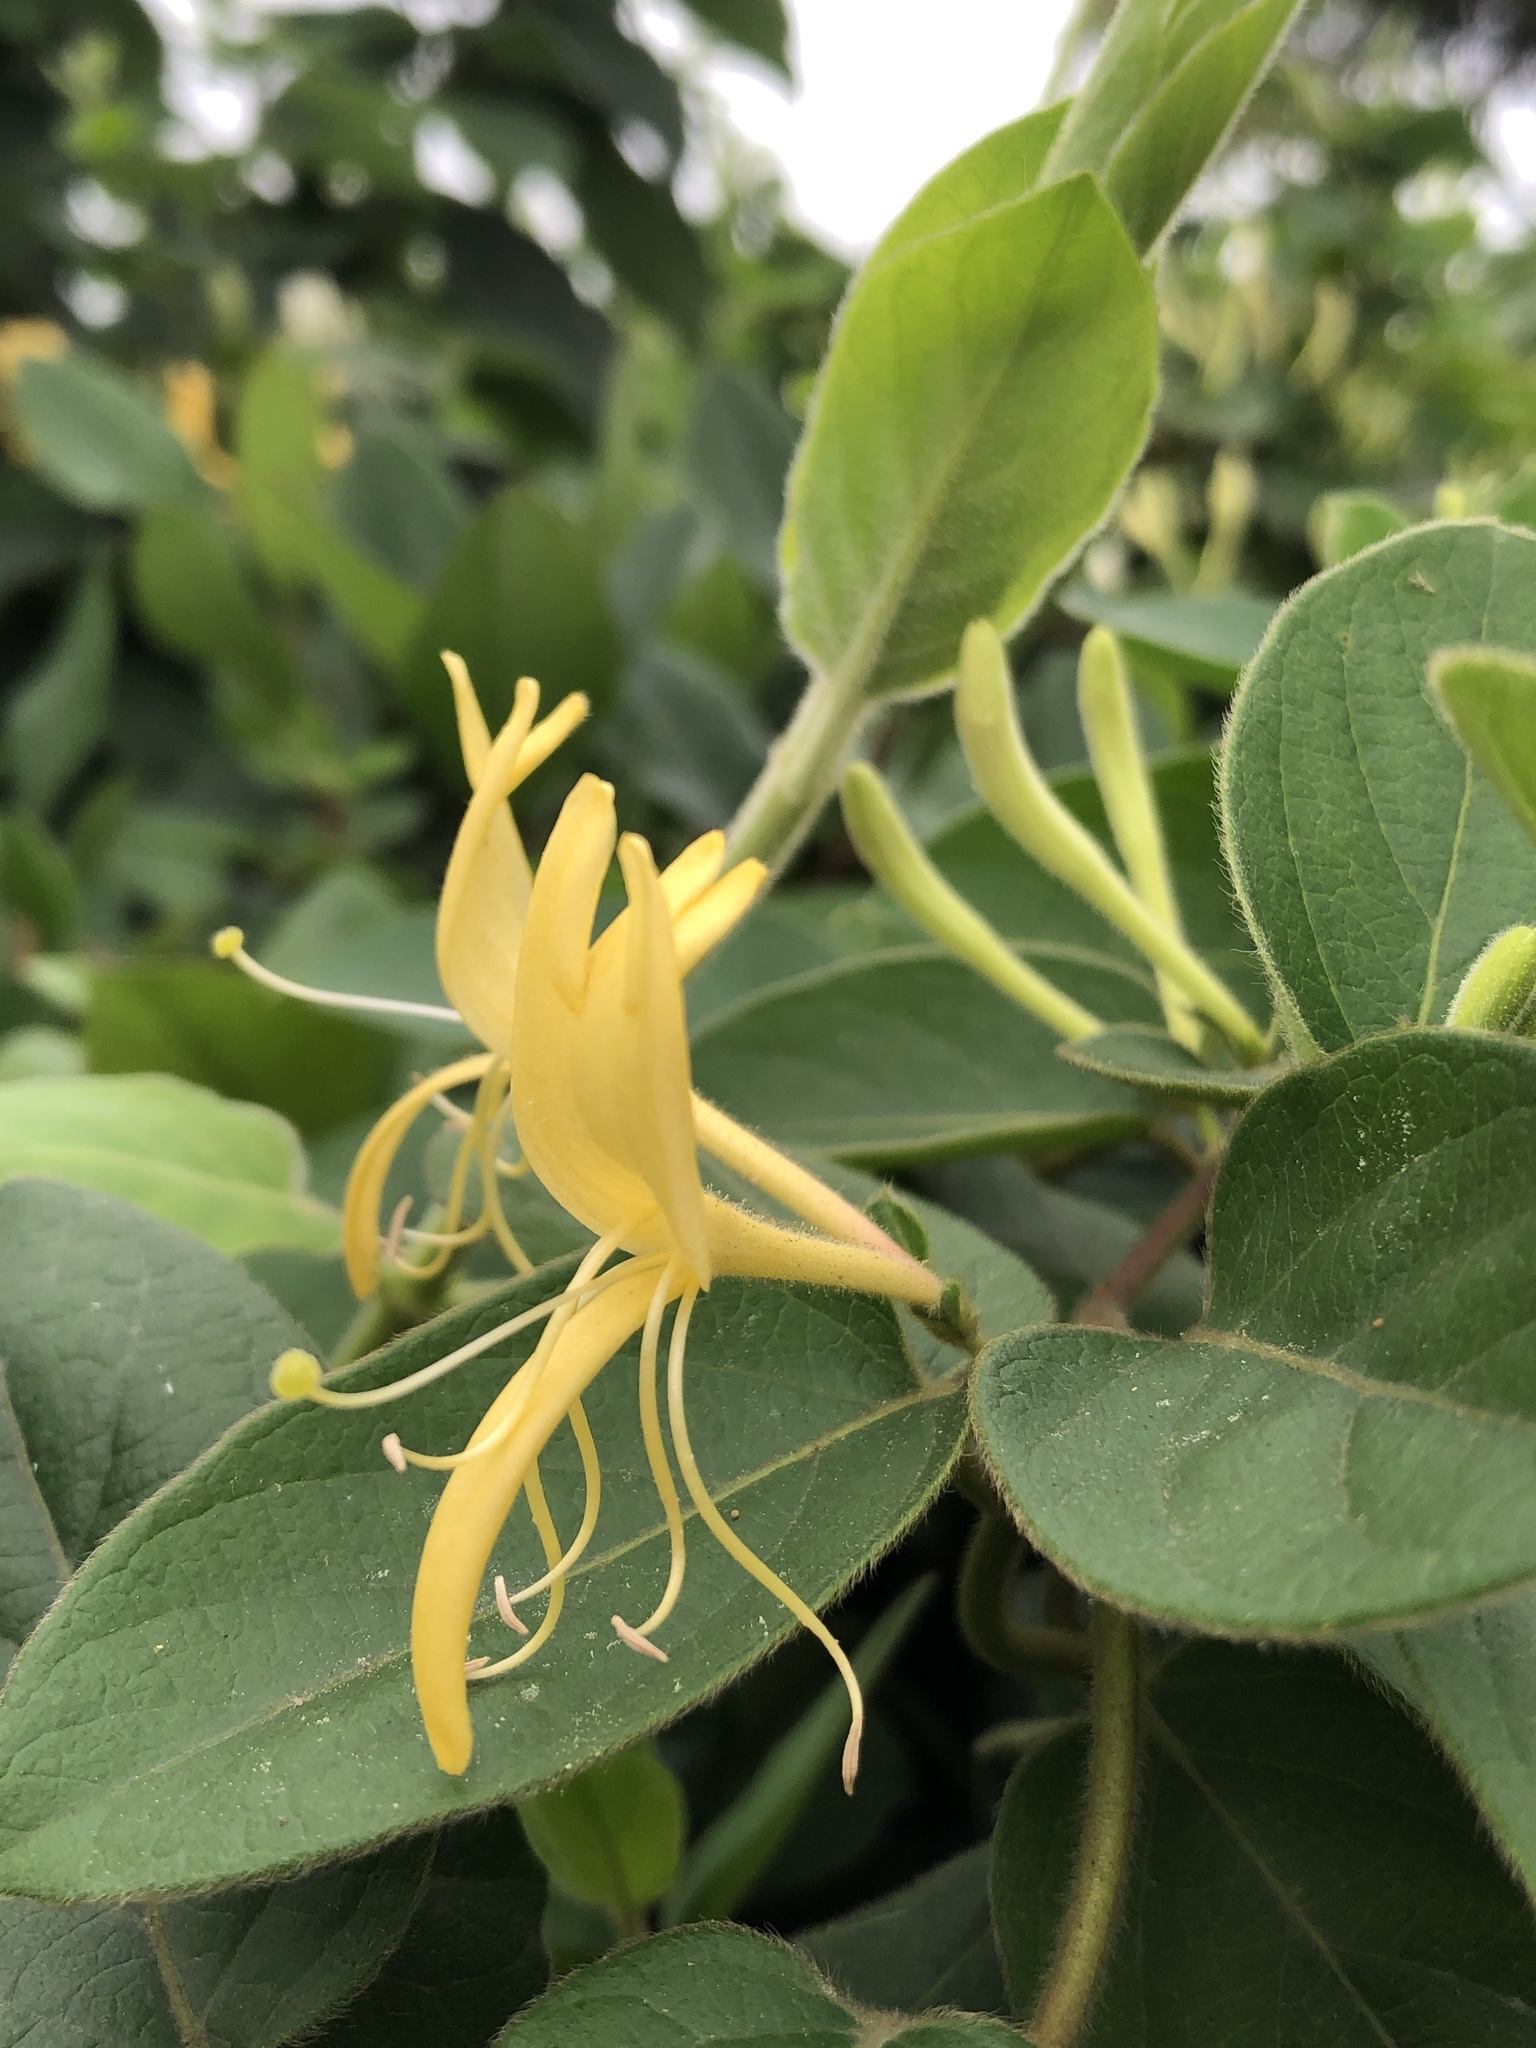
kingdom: Plantae
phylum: Tracheophyta
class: Magnoliopsida
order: Dipsacales
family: Caprifoliaceae
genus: Lonicera
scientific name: Lonicera japonica
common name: Japanese honeysuckle
